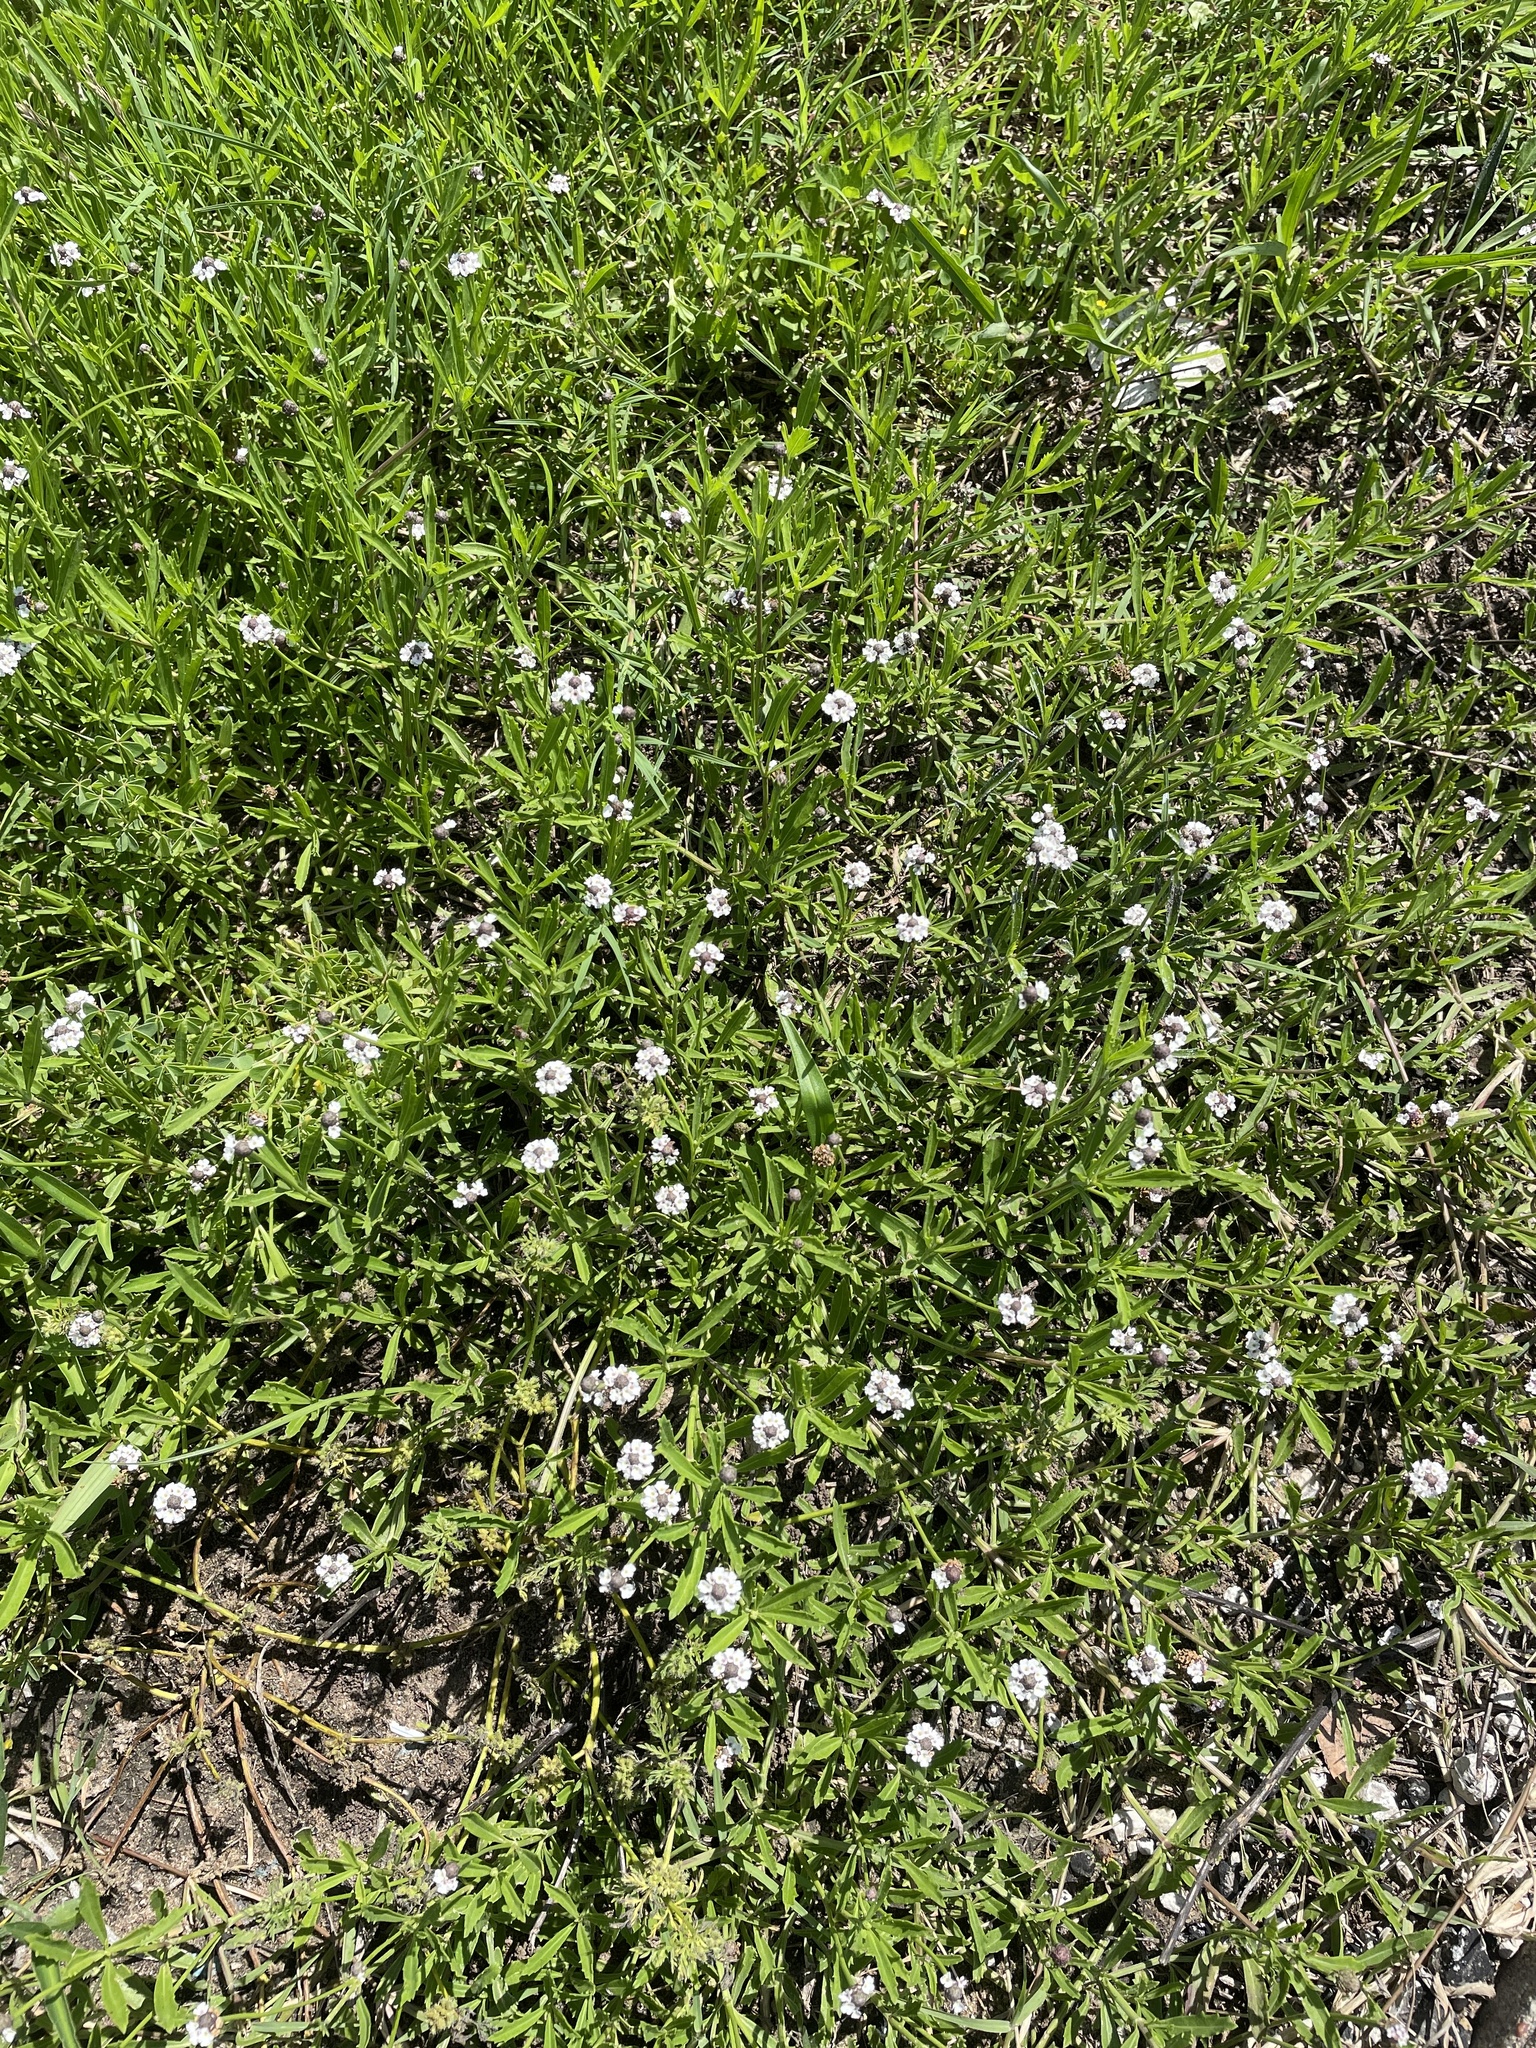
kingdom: Plantae
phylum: Tracheophyta
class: Magnoliopsida
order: Lamiales
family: Verbenaceae
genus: Phyla
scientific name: Phyla nodiflora
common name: Frogfruit
